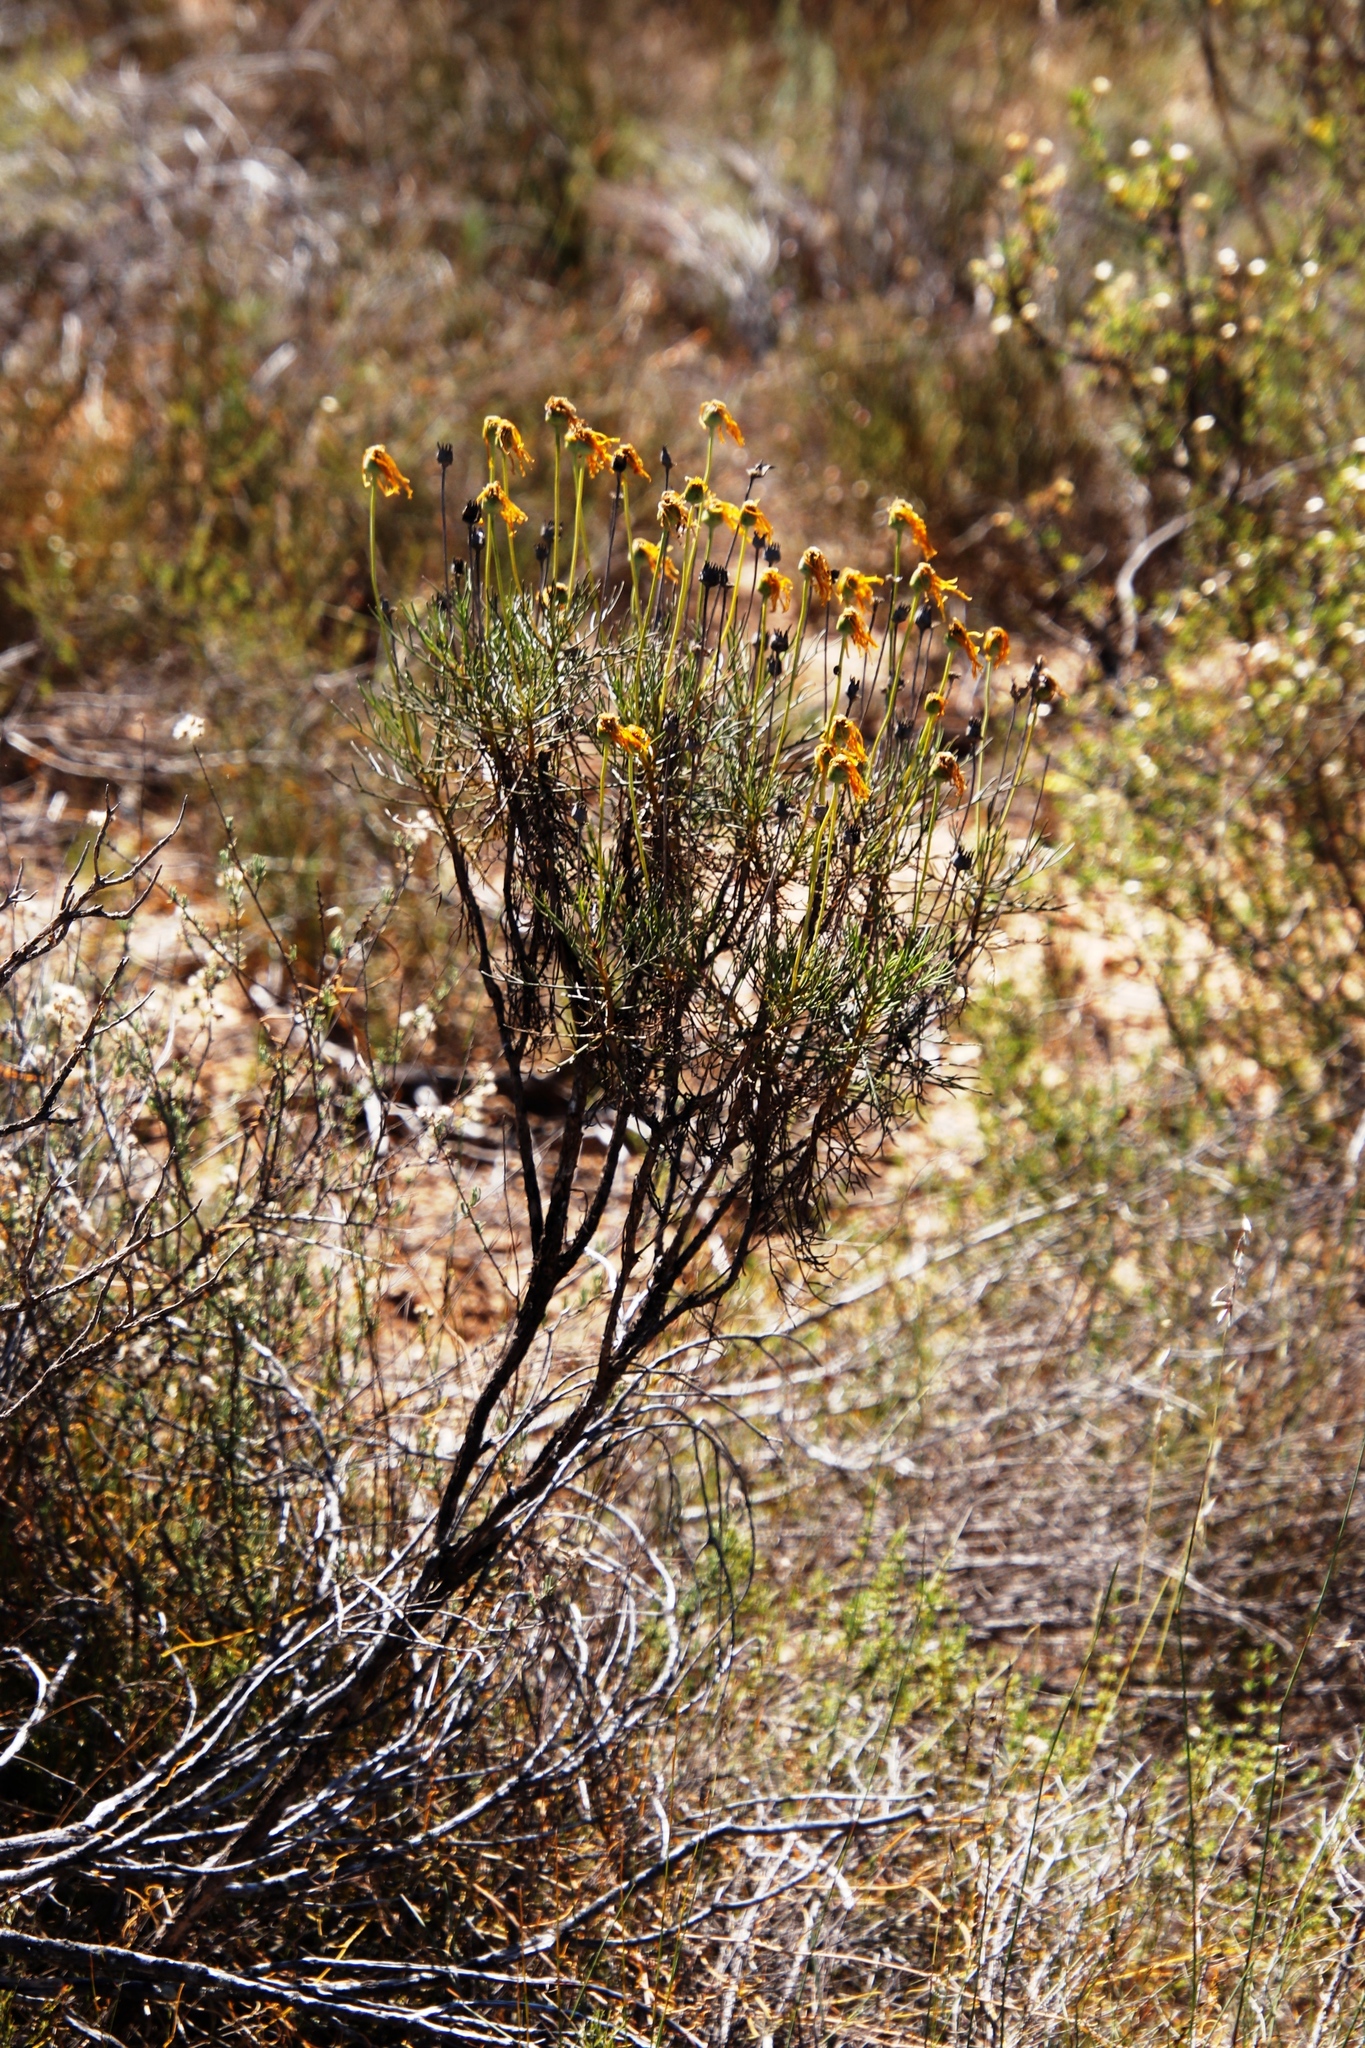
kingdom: Plantae
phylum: Tracheophyta
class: Magnoliopsida
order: Asterales
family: Asteraceae
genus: Euryops
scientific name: Euryops speciosissimus
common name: Clanwilliam daisy
